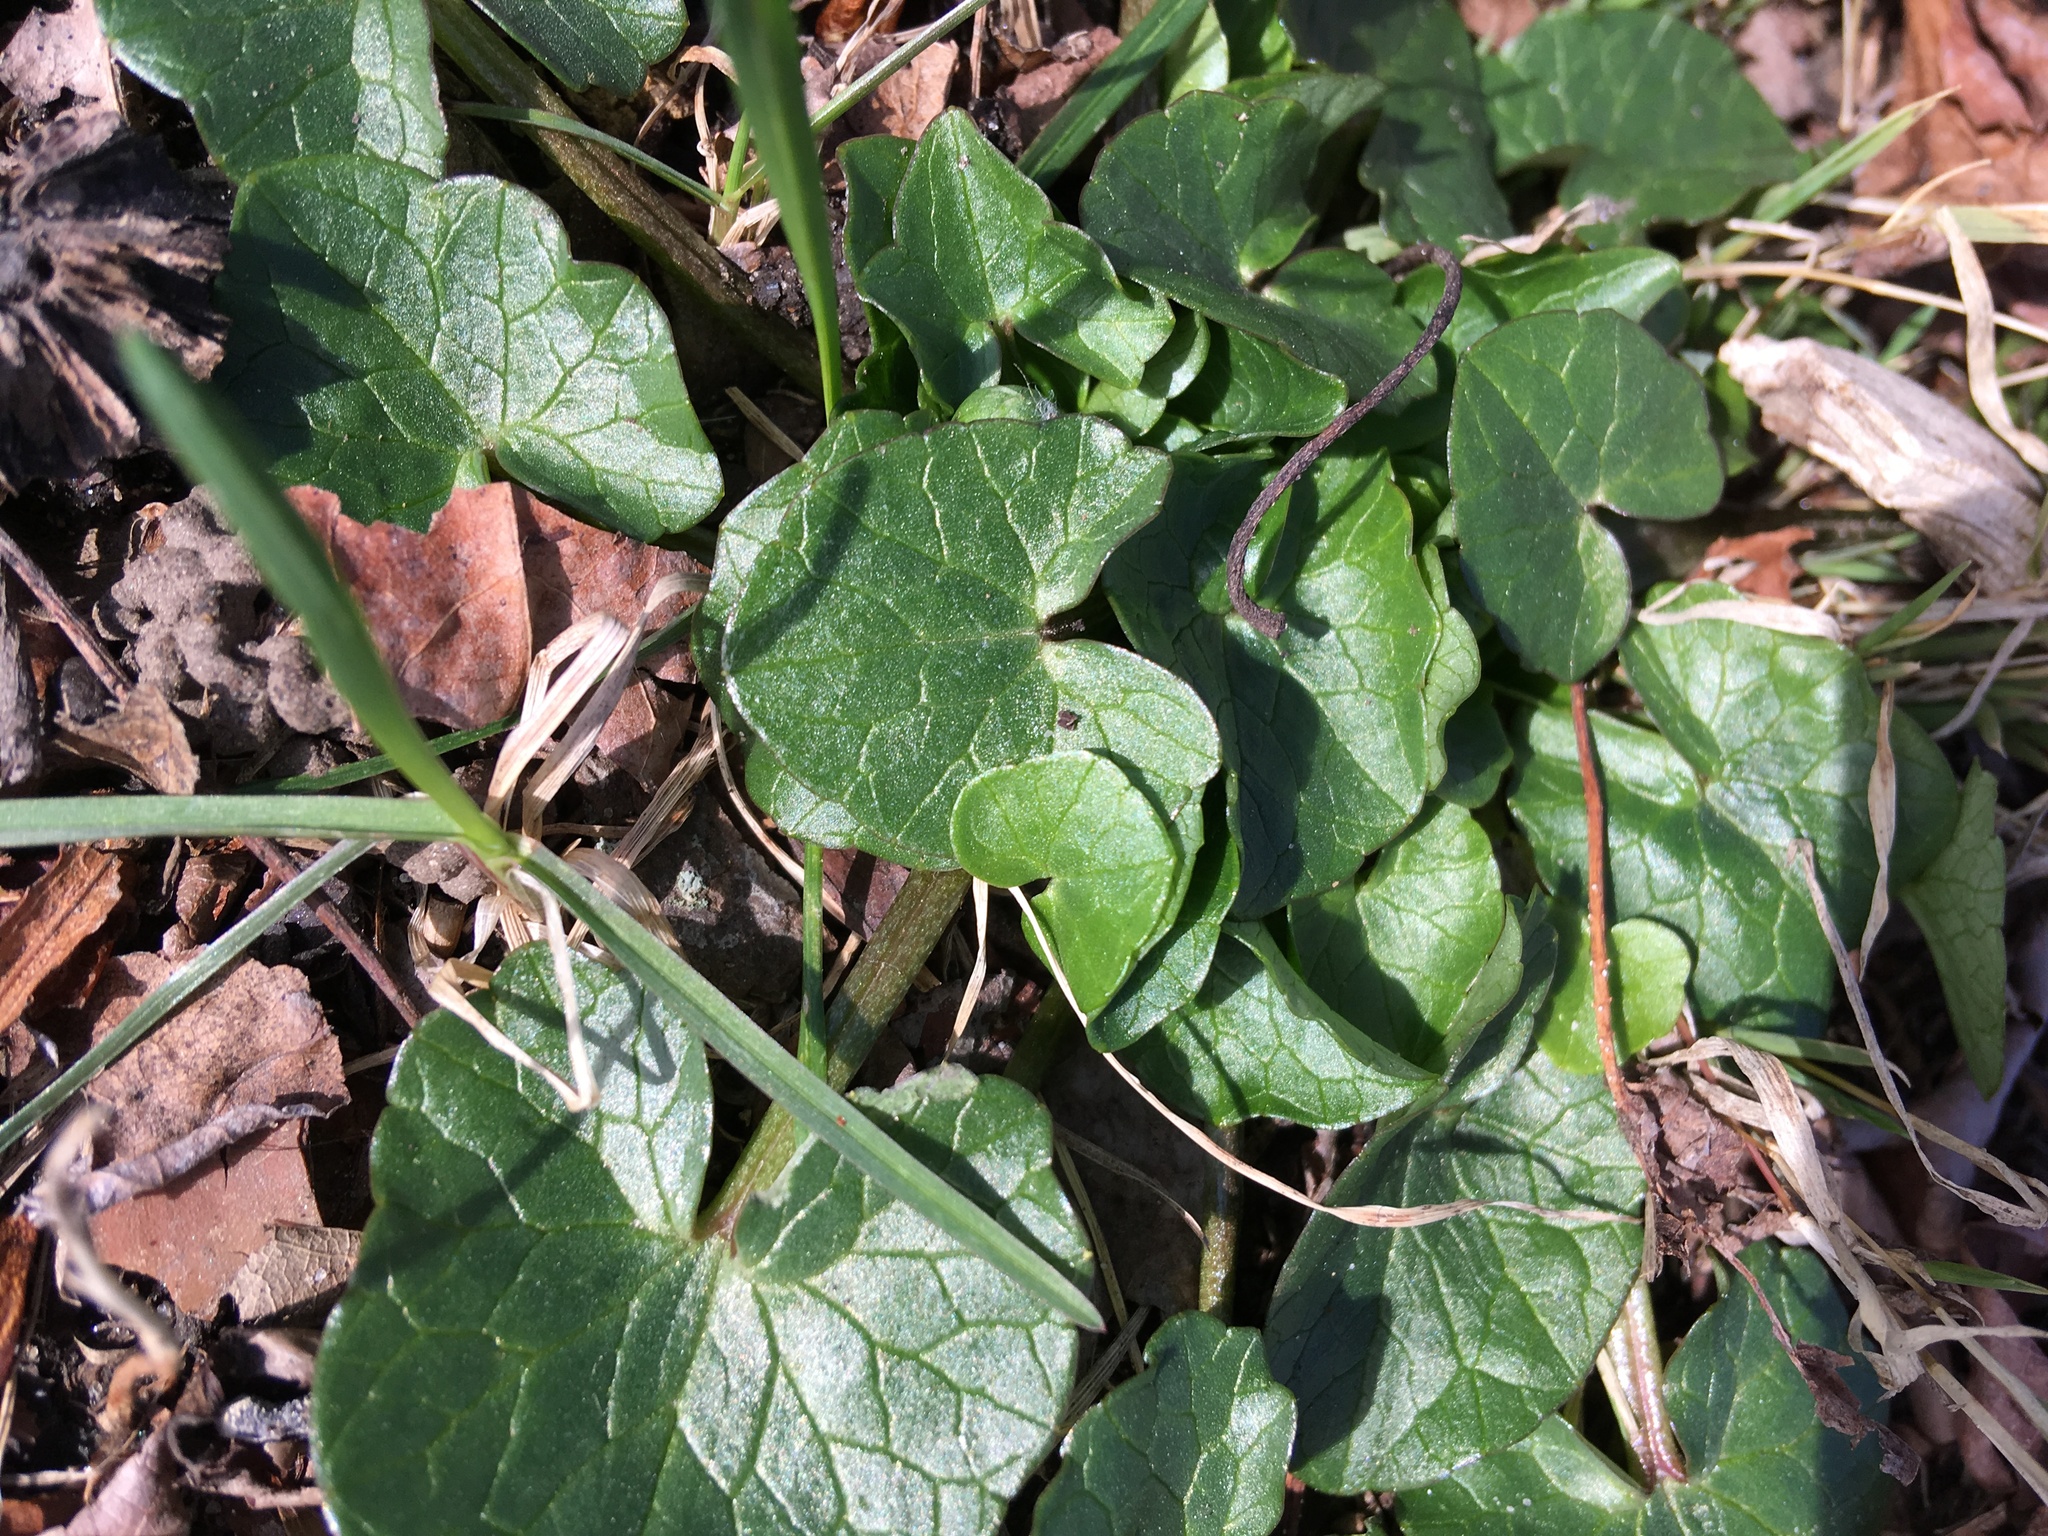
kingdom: Plantae
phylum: Tracheophyta
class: Magnoliopsida
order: Ranunculales
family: Ranunculaceae
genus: Ficaria
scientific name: Ficaria verna
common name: Lesser celandine
